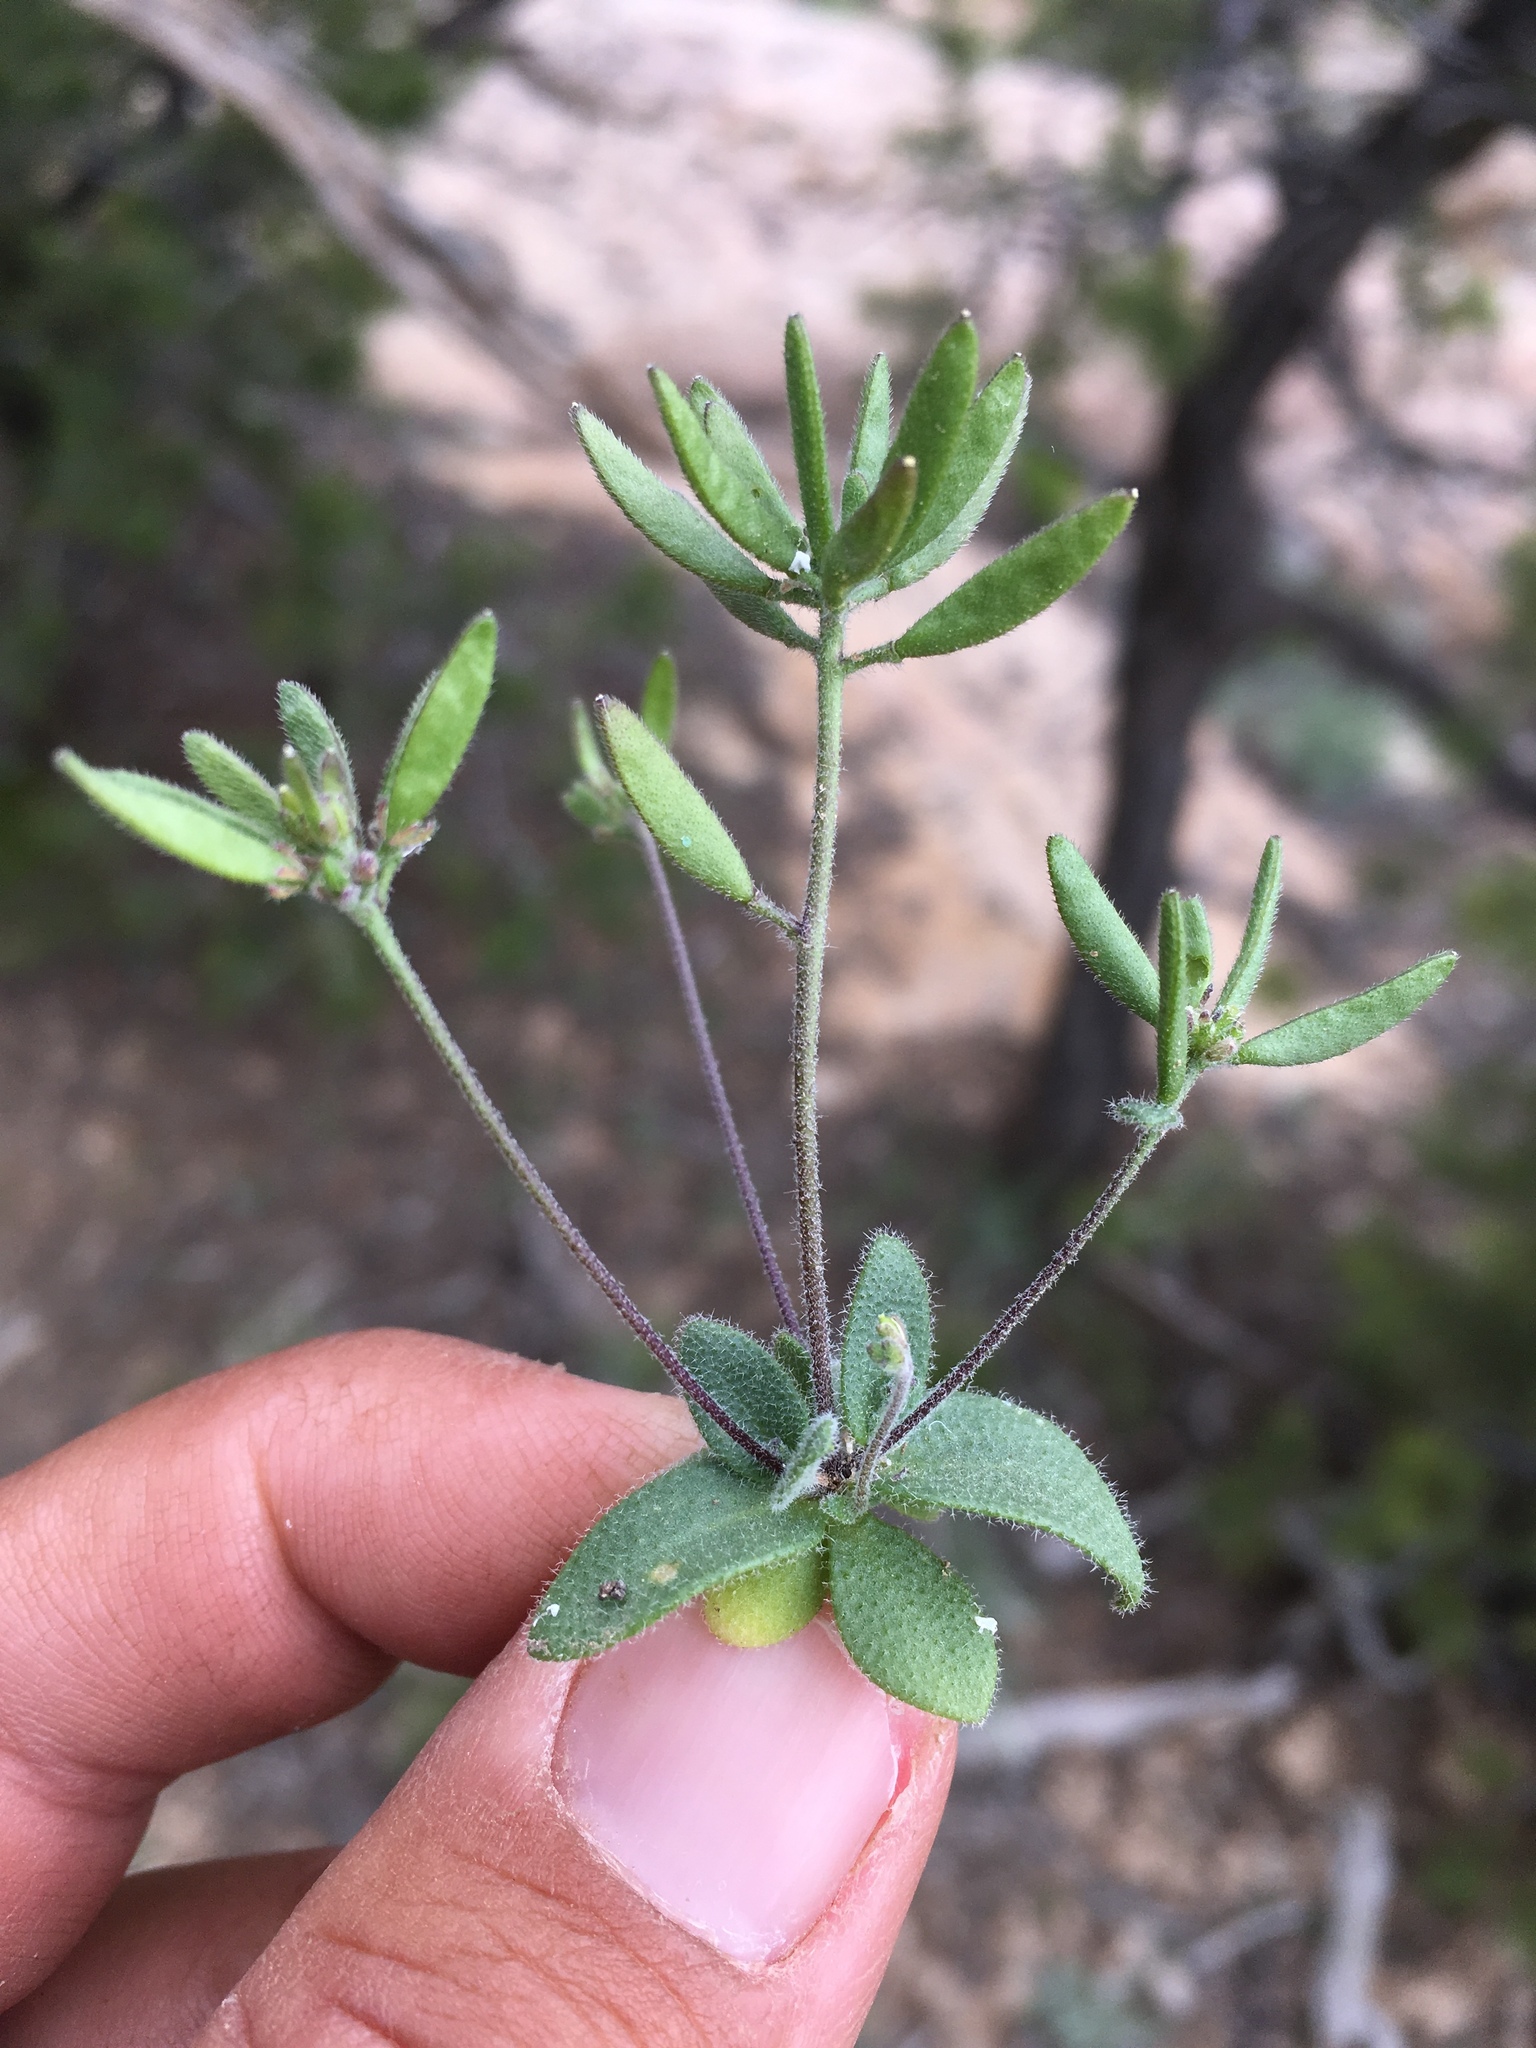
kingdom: Plantae
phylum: Tracheophyta
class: Magnoliopsida
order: Brassicales
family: Brassicaceae
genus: Tomostima
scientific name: Tomostima cuneifolia
